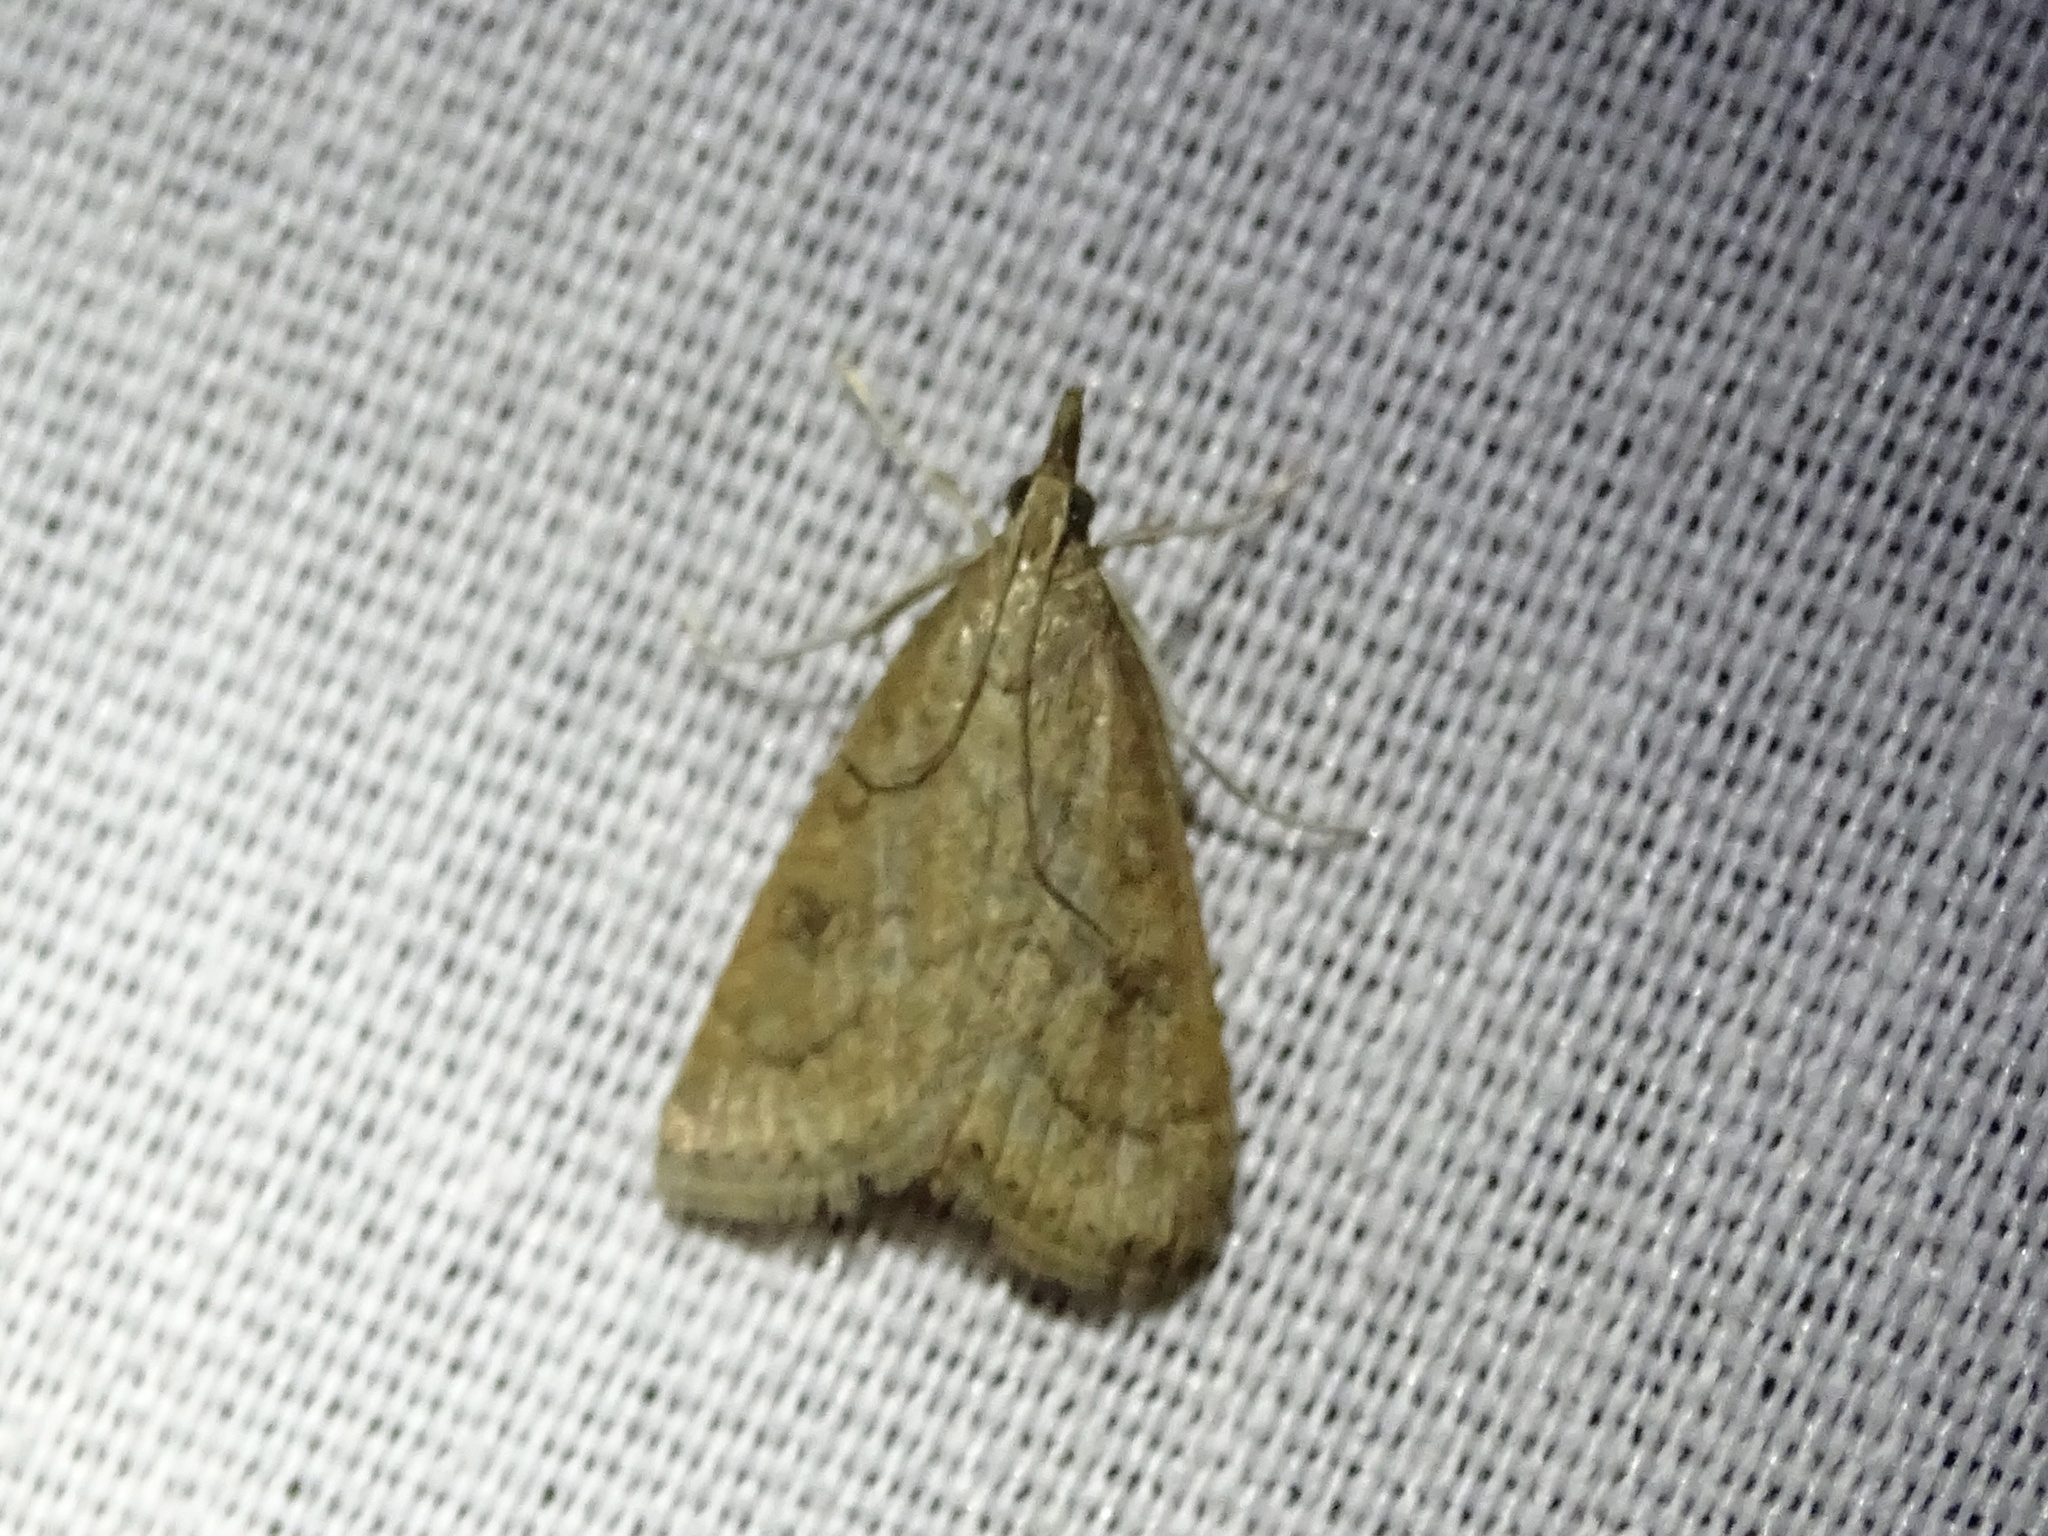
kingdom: Animalia
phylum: Arthropoda
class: Insecta
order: Lepidoptera
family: Crambidae
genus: Udea
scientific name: Udea rubigalis
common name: Celery leaftier moth
